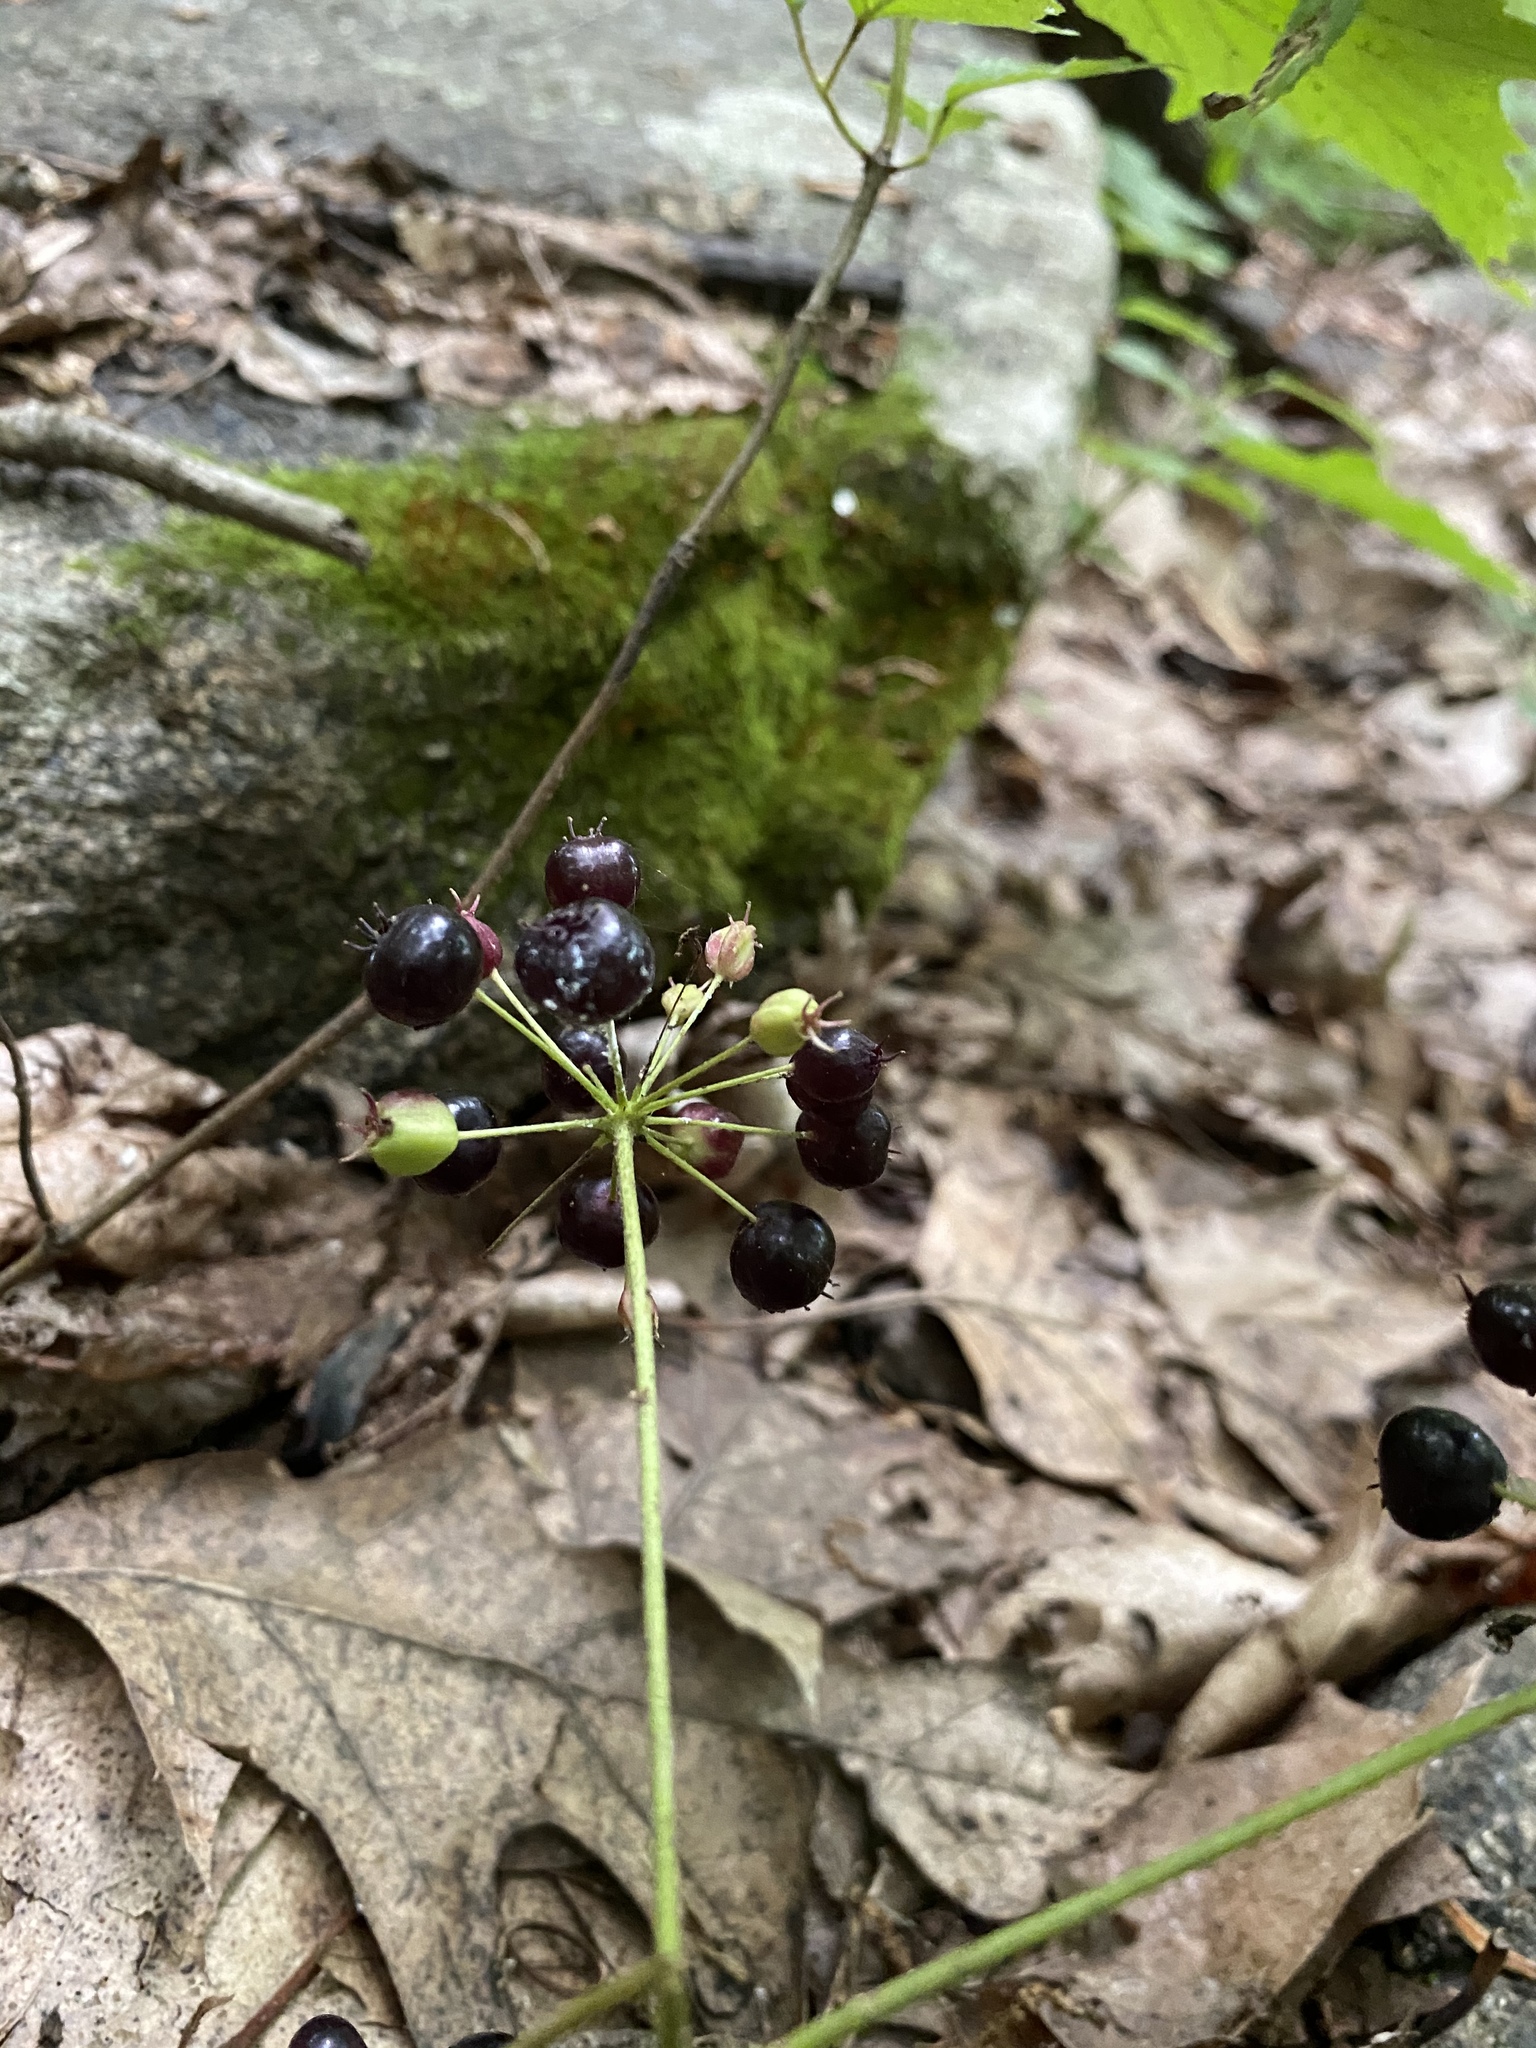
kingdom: Plantae
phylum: Tracheophyta
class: Magnoliopsida
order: Apiales
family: Araliaceae
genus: Aralia
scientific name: Aralia nudicaulis
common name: Wild sarsaparilla
